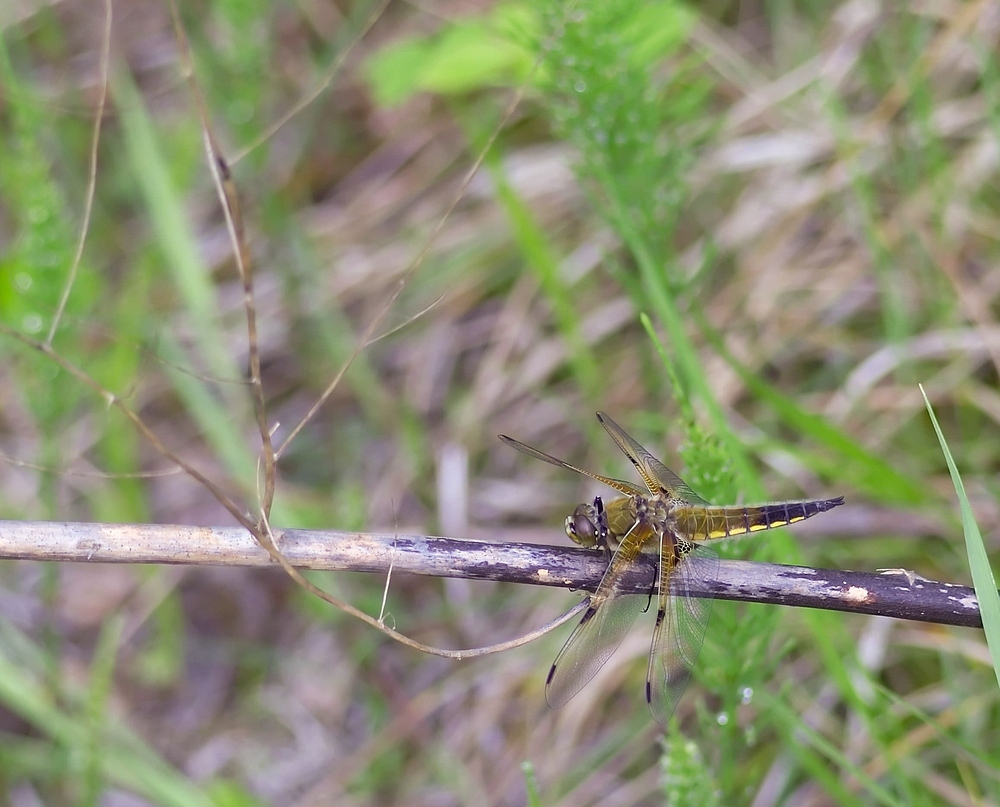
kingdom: Animalia
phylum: Arthropoda
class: Insecta
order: Odonata
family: Libellulidae
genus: Libellula
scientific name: Libellula quadrimaculata
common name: Four-spotted chaser
